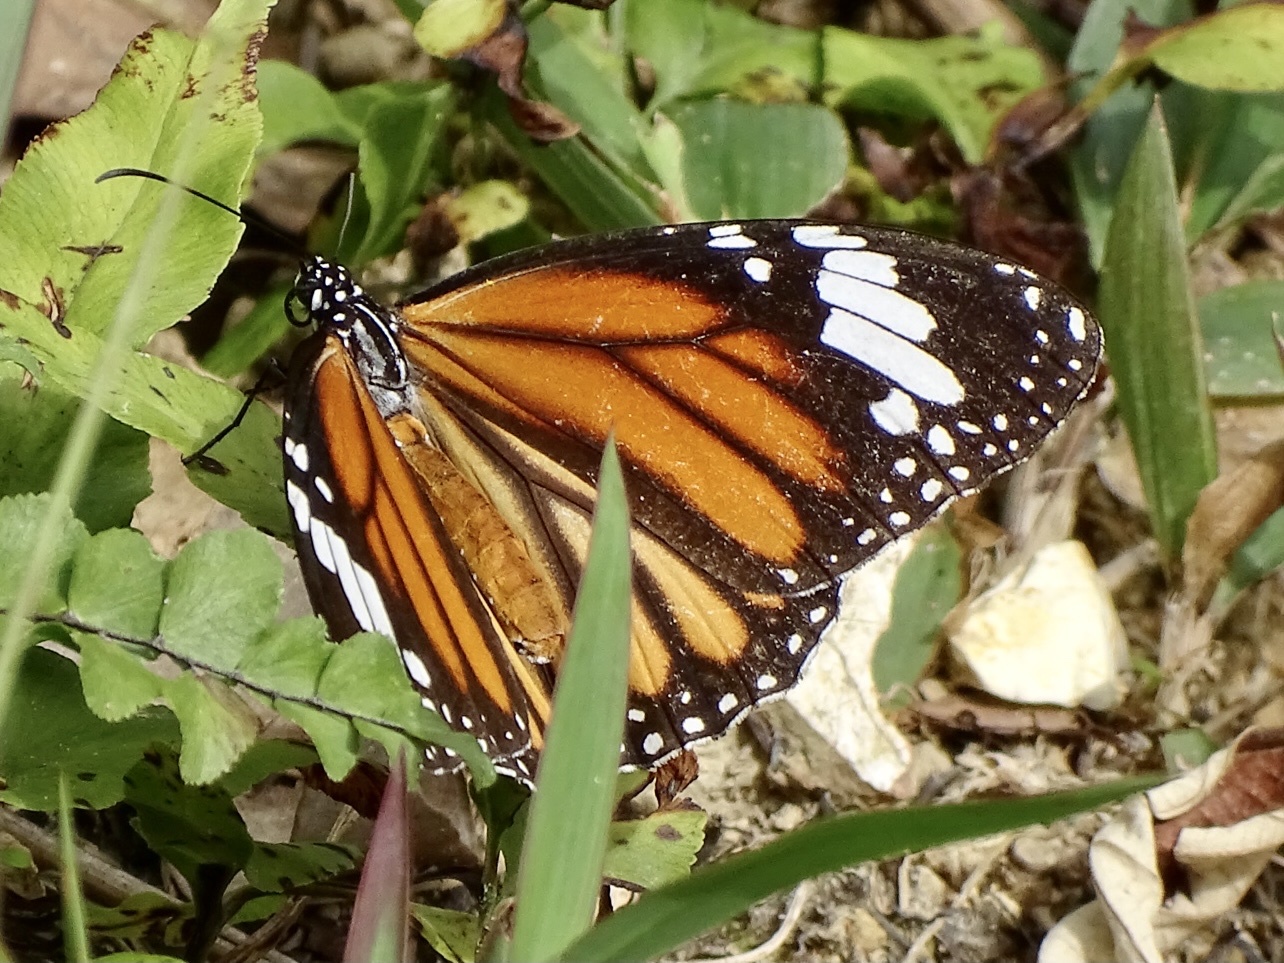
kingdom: Animalia
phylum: Arthropoda
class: Insecta
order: Lepidoptera
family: Nymphalidae
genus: Danaus
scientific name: Danaus genutia
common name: Common tiger butterfly
